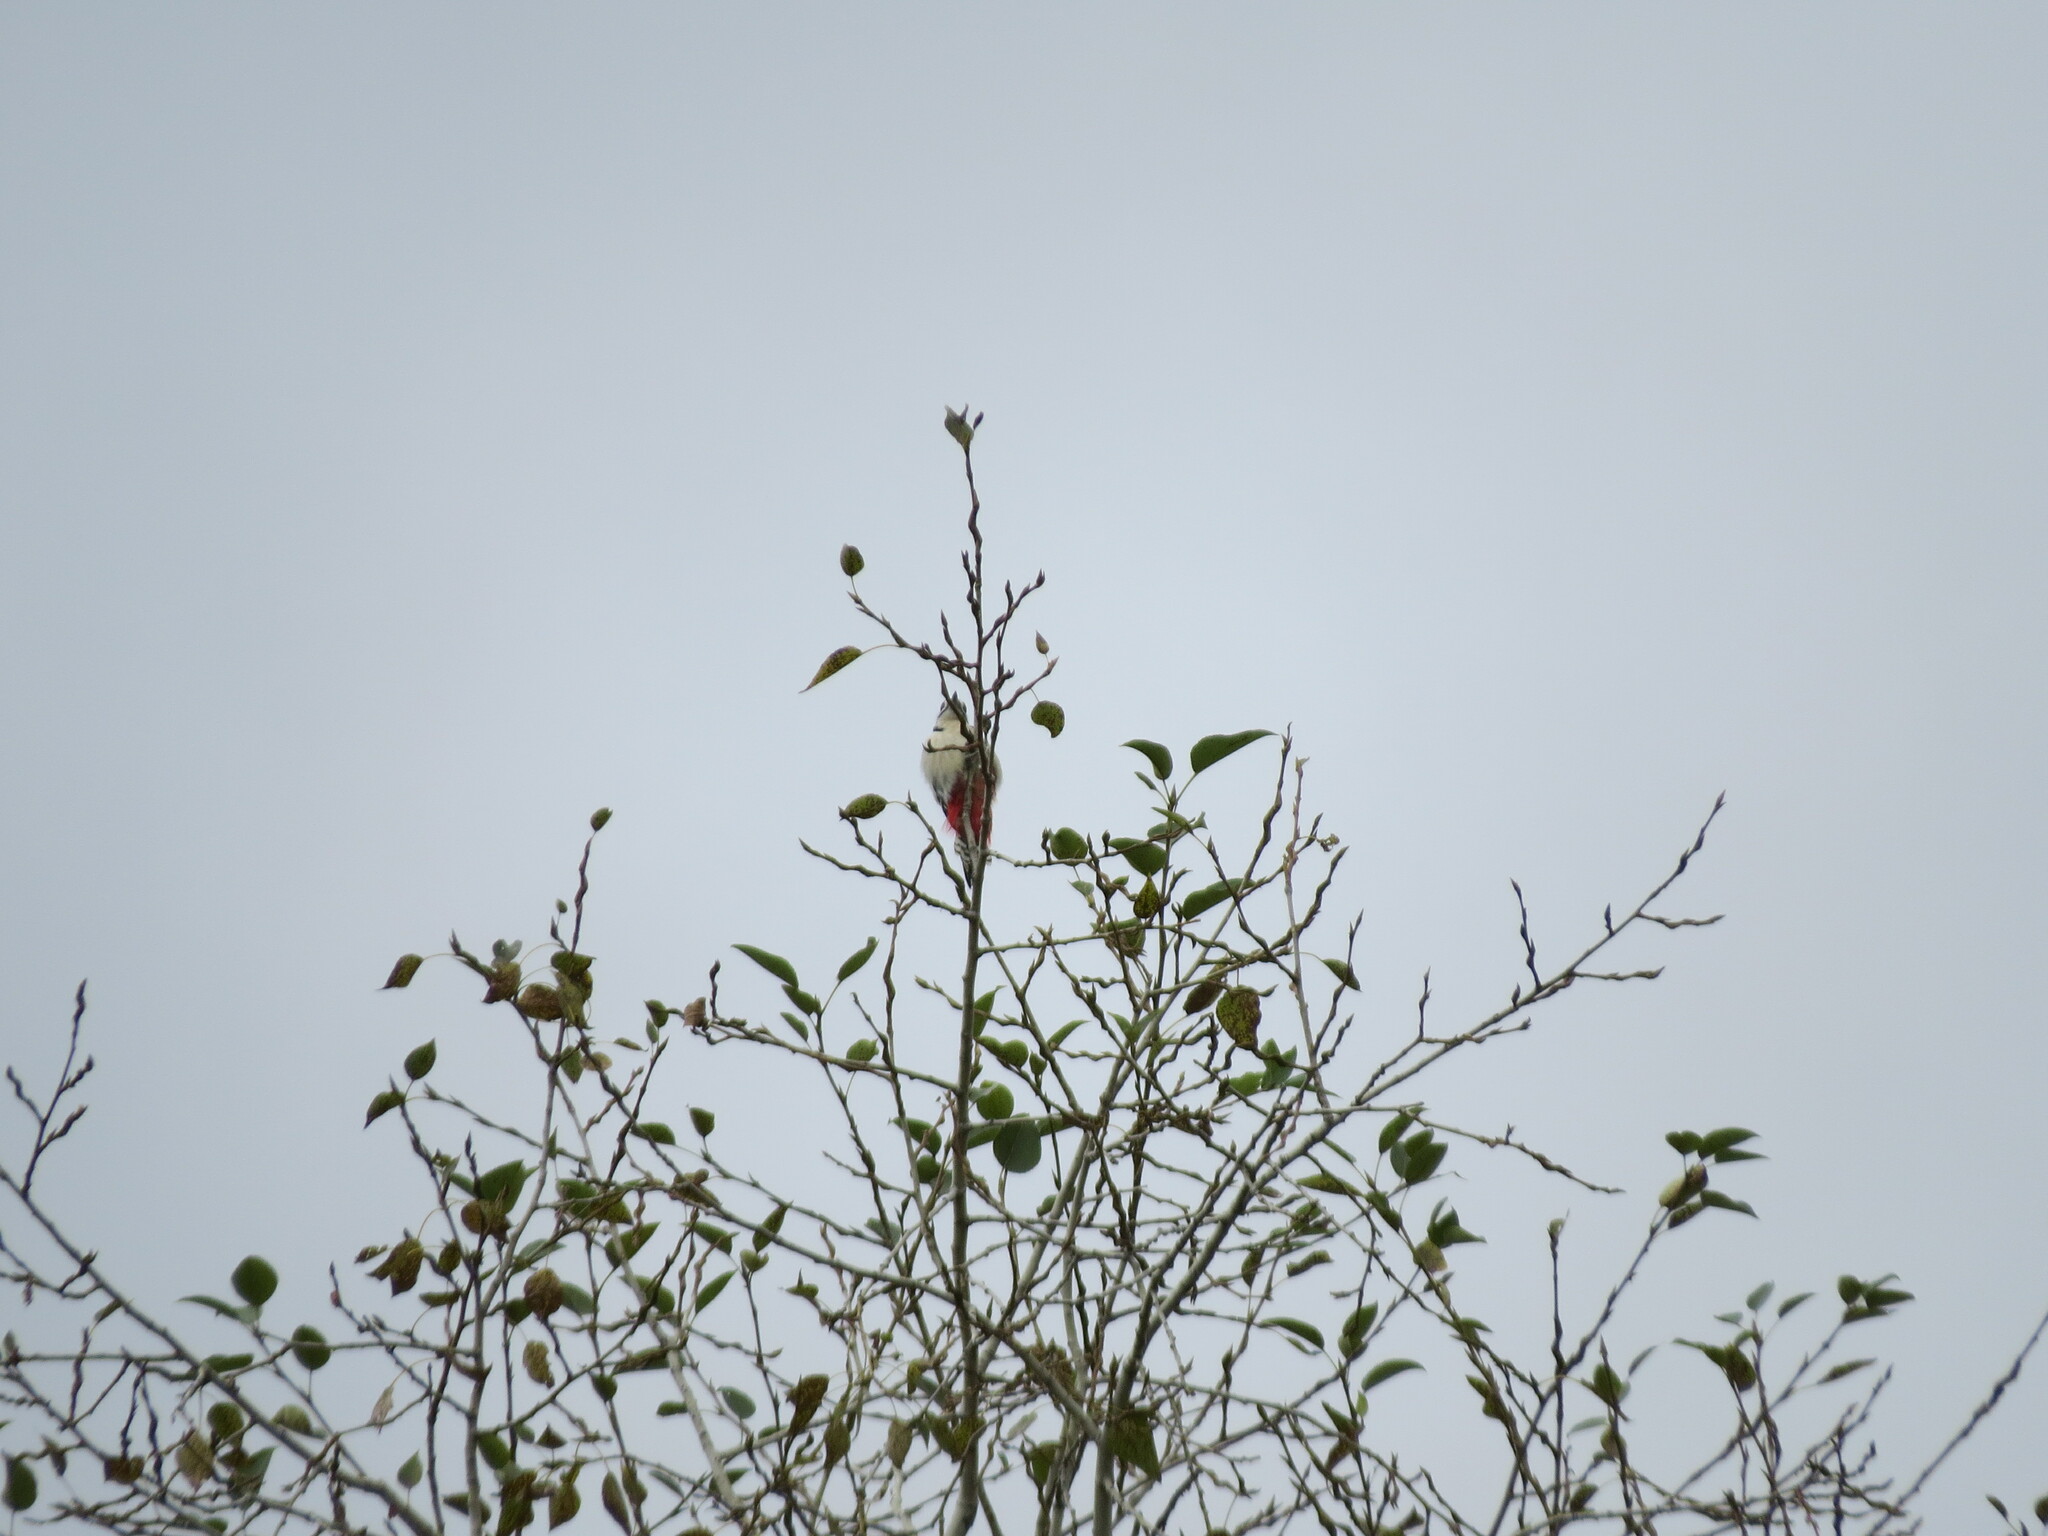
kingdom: Animalia
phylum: Chordata
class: Aves
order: Piciformes
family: Picidae
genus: Dendrocopos
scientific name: Dendrocopos major
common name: Great spotted woodpecker
